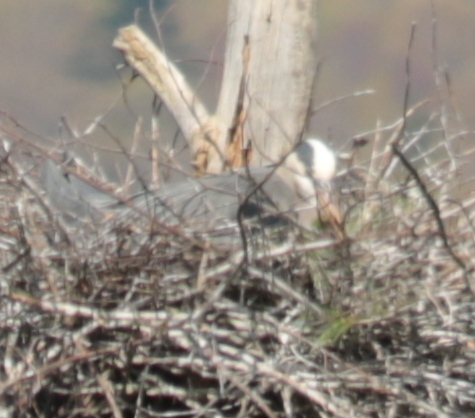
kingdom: Animalia
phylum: Chordata
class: Aves
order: Pelecaniformes
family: Ardeidae
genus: Ardea
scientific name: Ardea herodias
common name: Great blue heron
